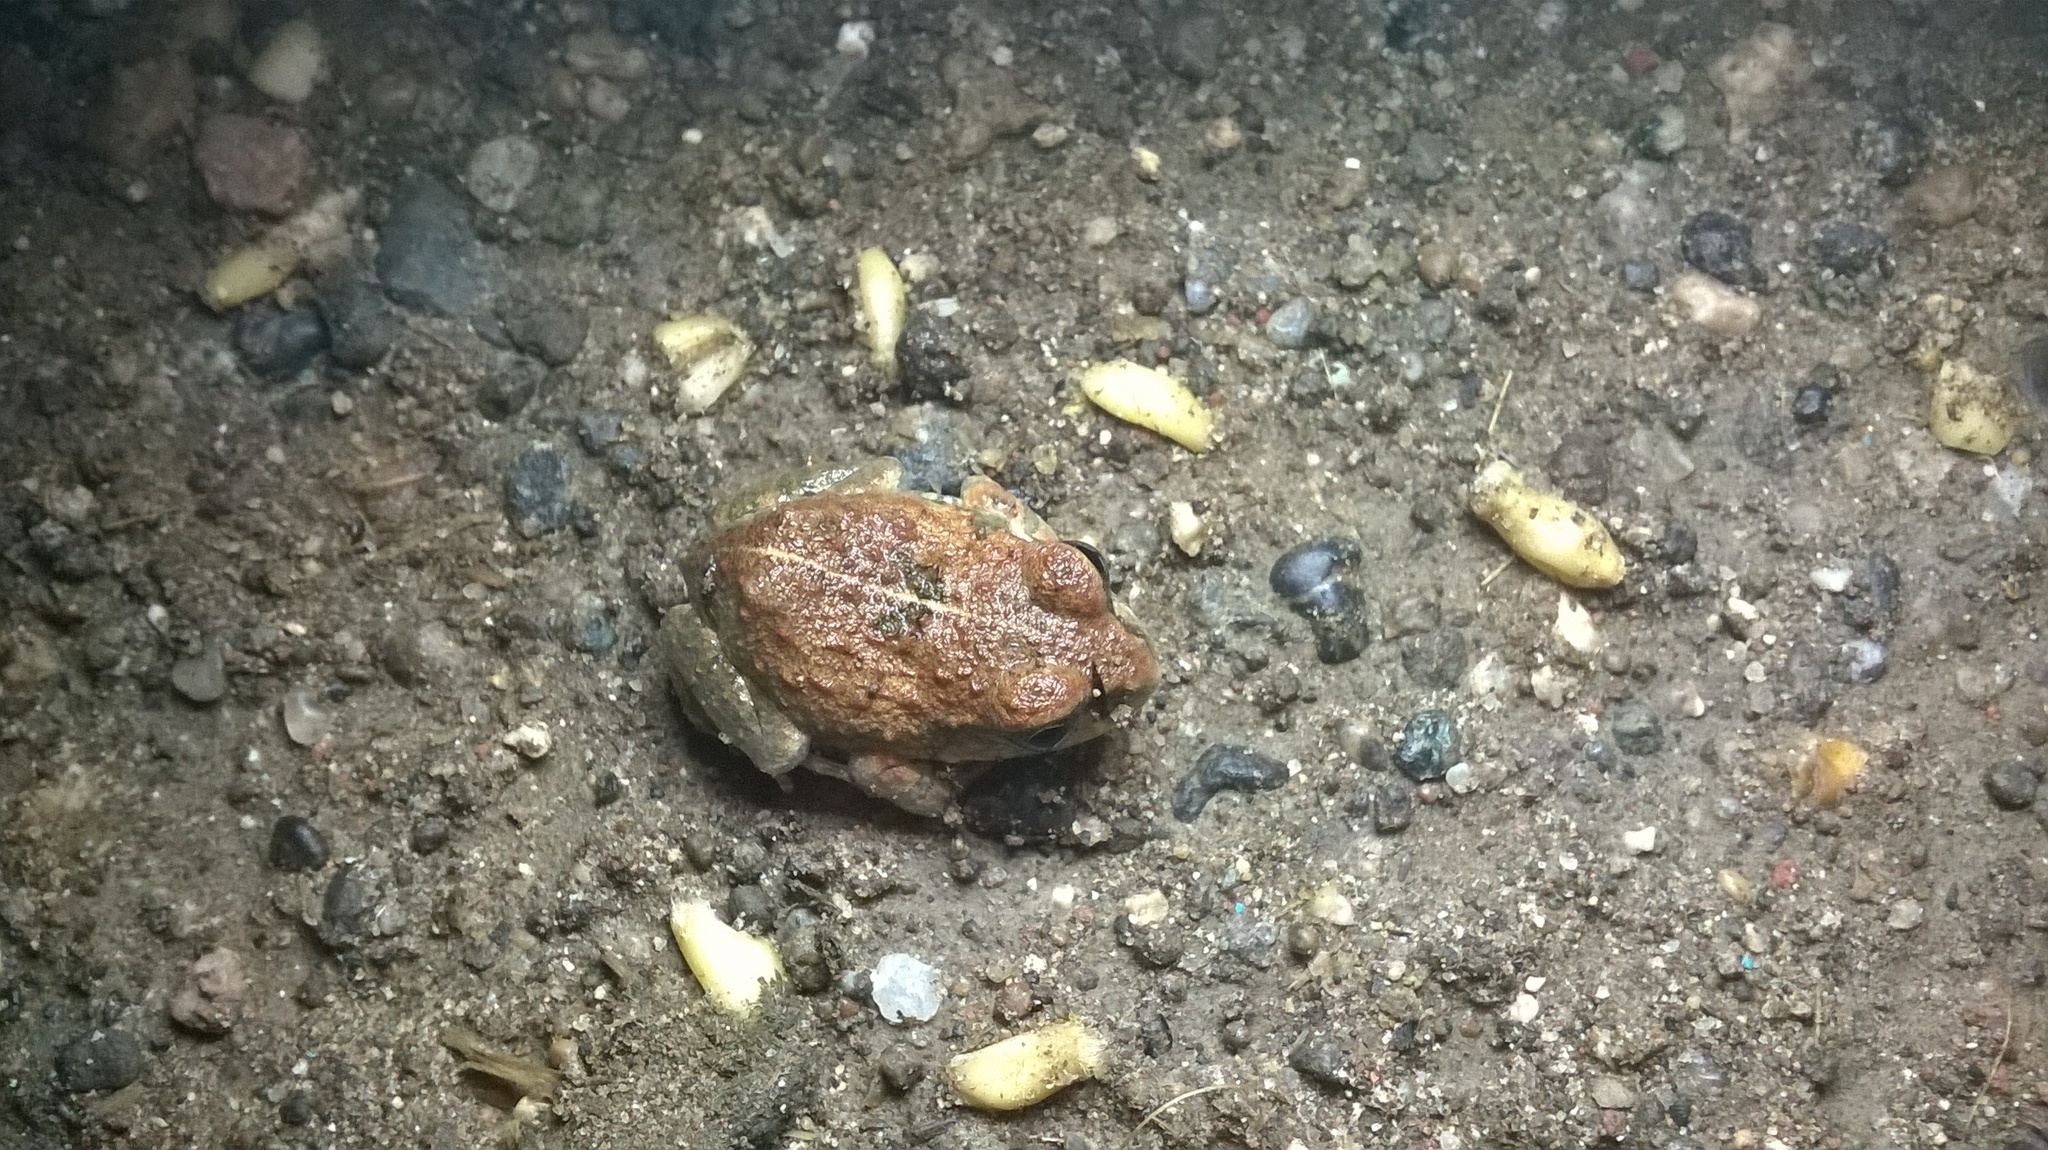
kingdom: Animalia
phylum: Chordata
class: Amphibia
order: Anura
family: Dicroglossidae
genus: Sphaerotheca
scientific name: Sphaerotheca maskeyi
